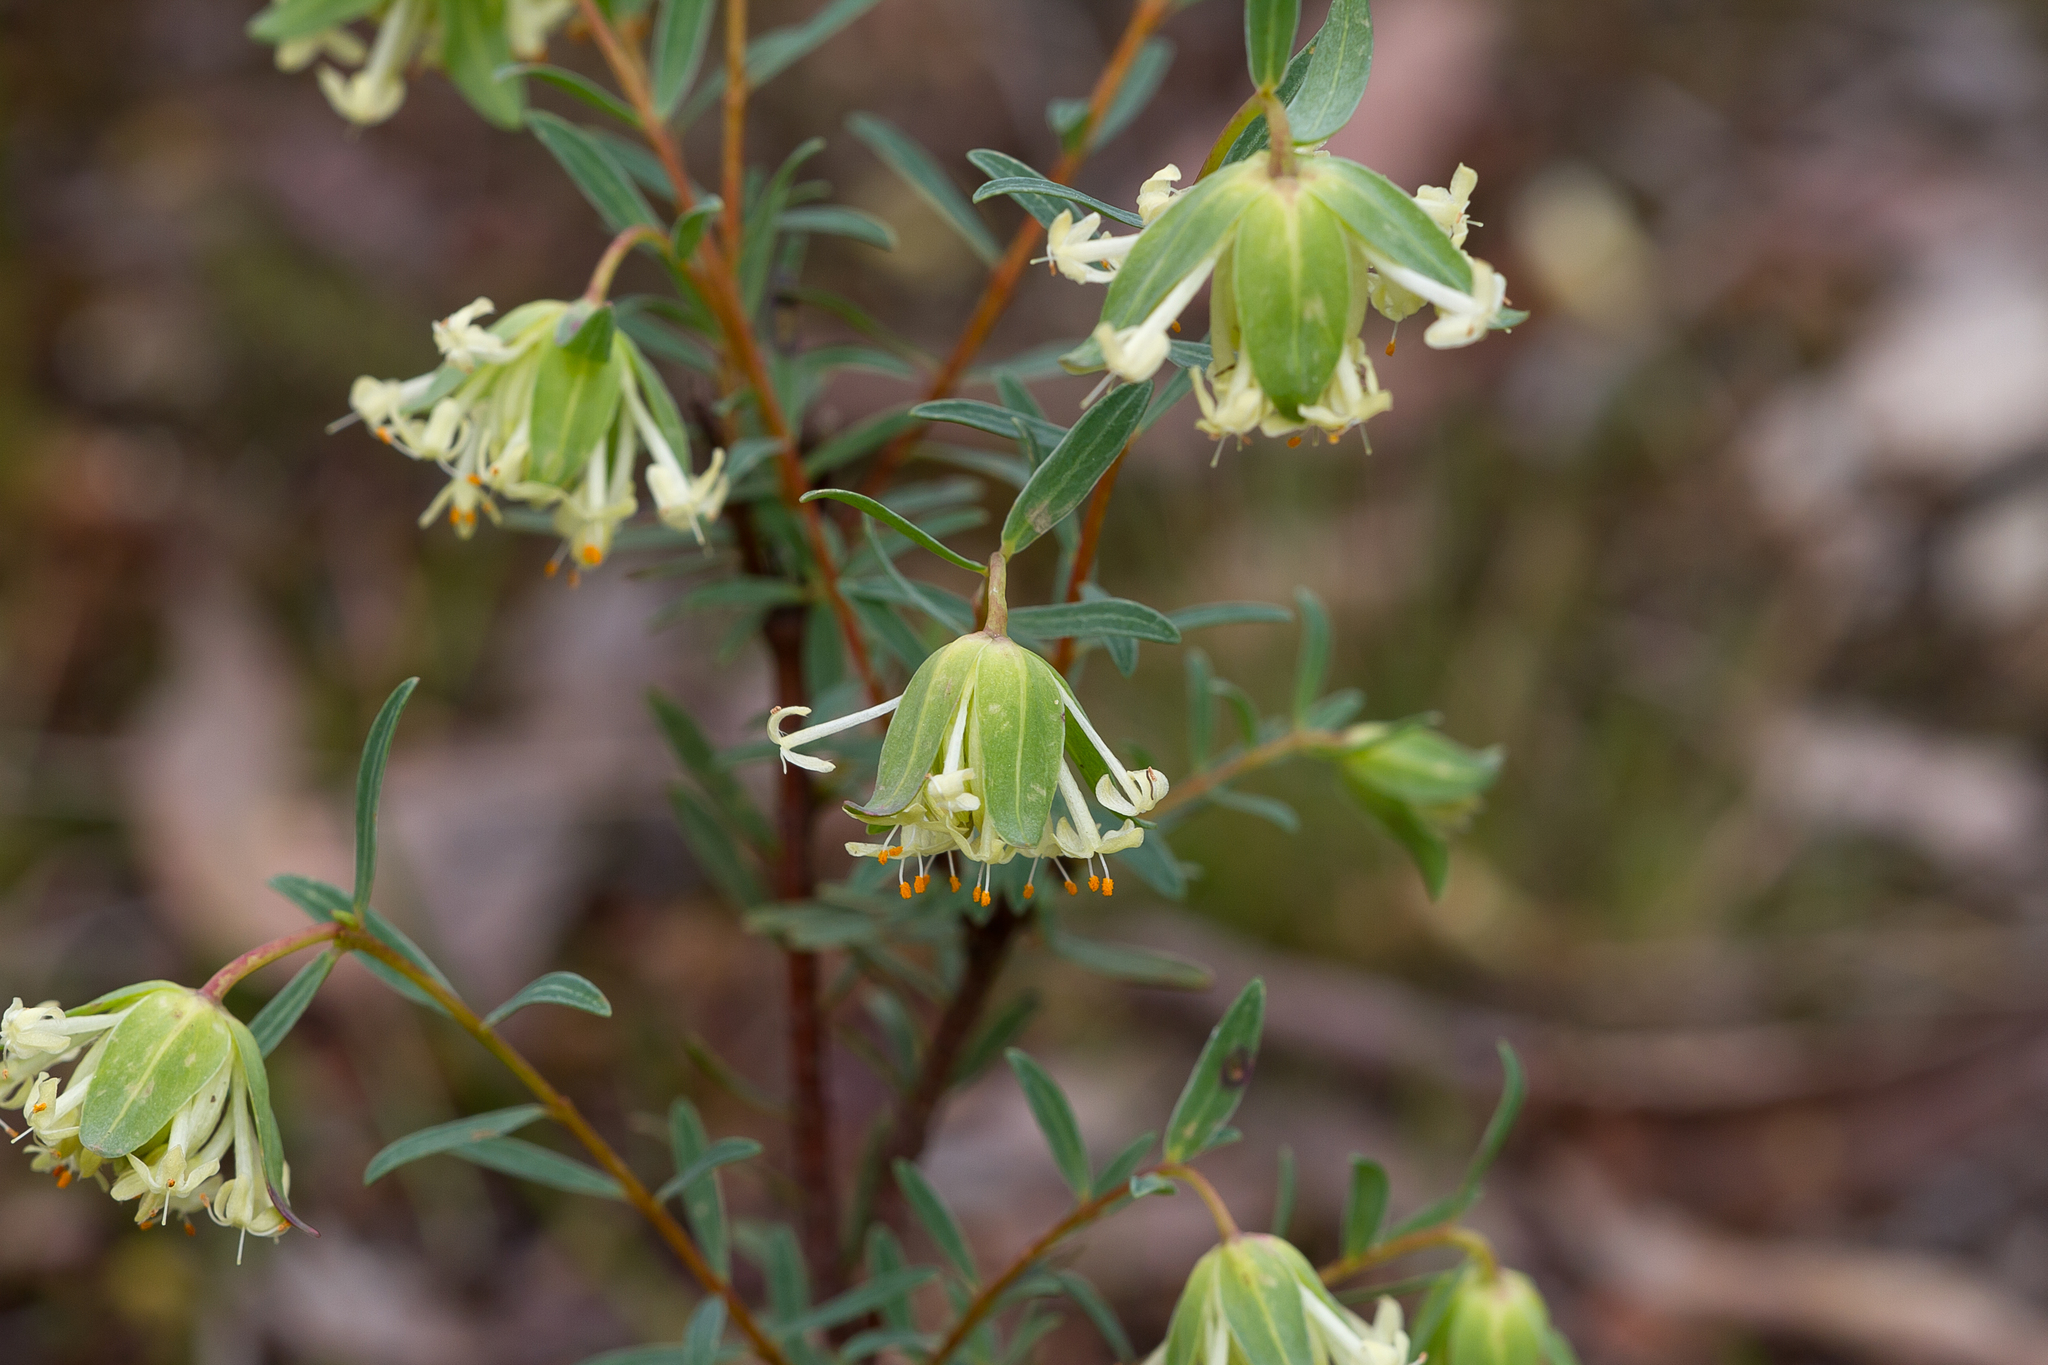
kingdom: Plantae
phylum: Tracheophyta
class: Magnoliopsida
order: Malvales
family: Thymelaeaceae
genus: Pimelea
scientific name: Pimelea linifolia
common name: Queen-of-the-bush
